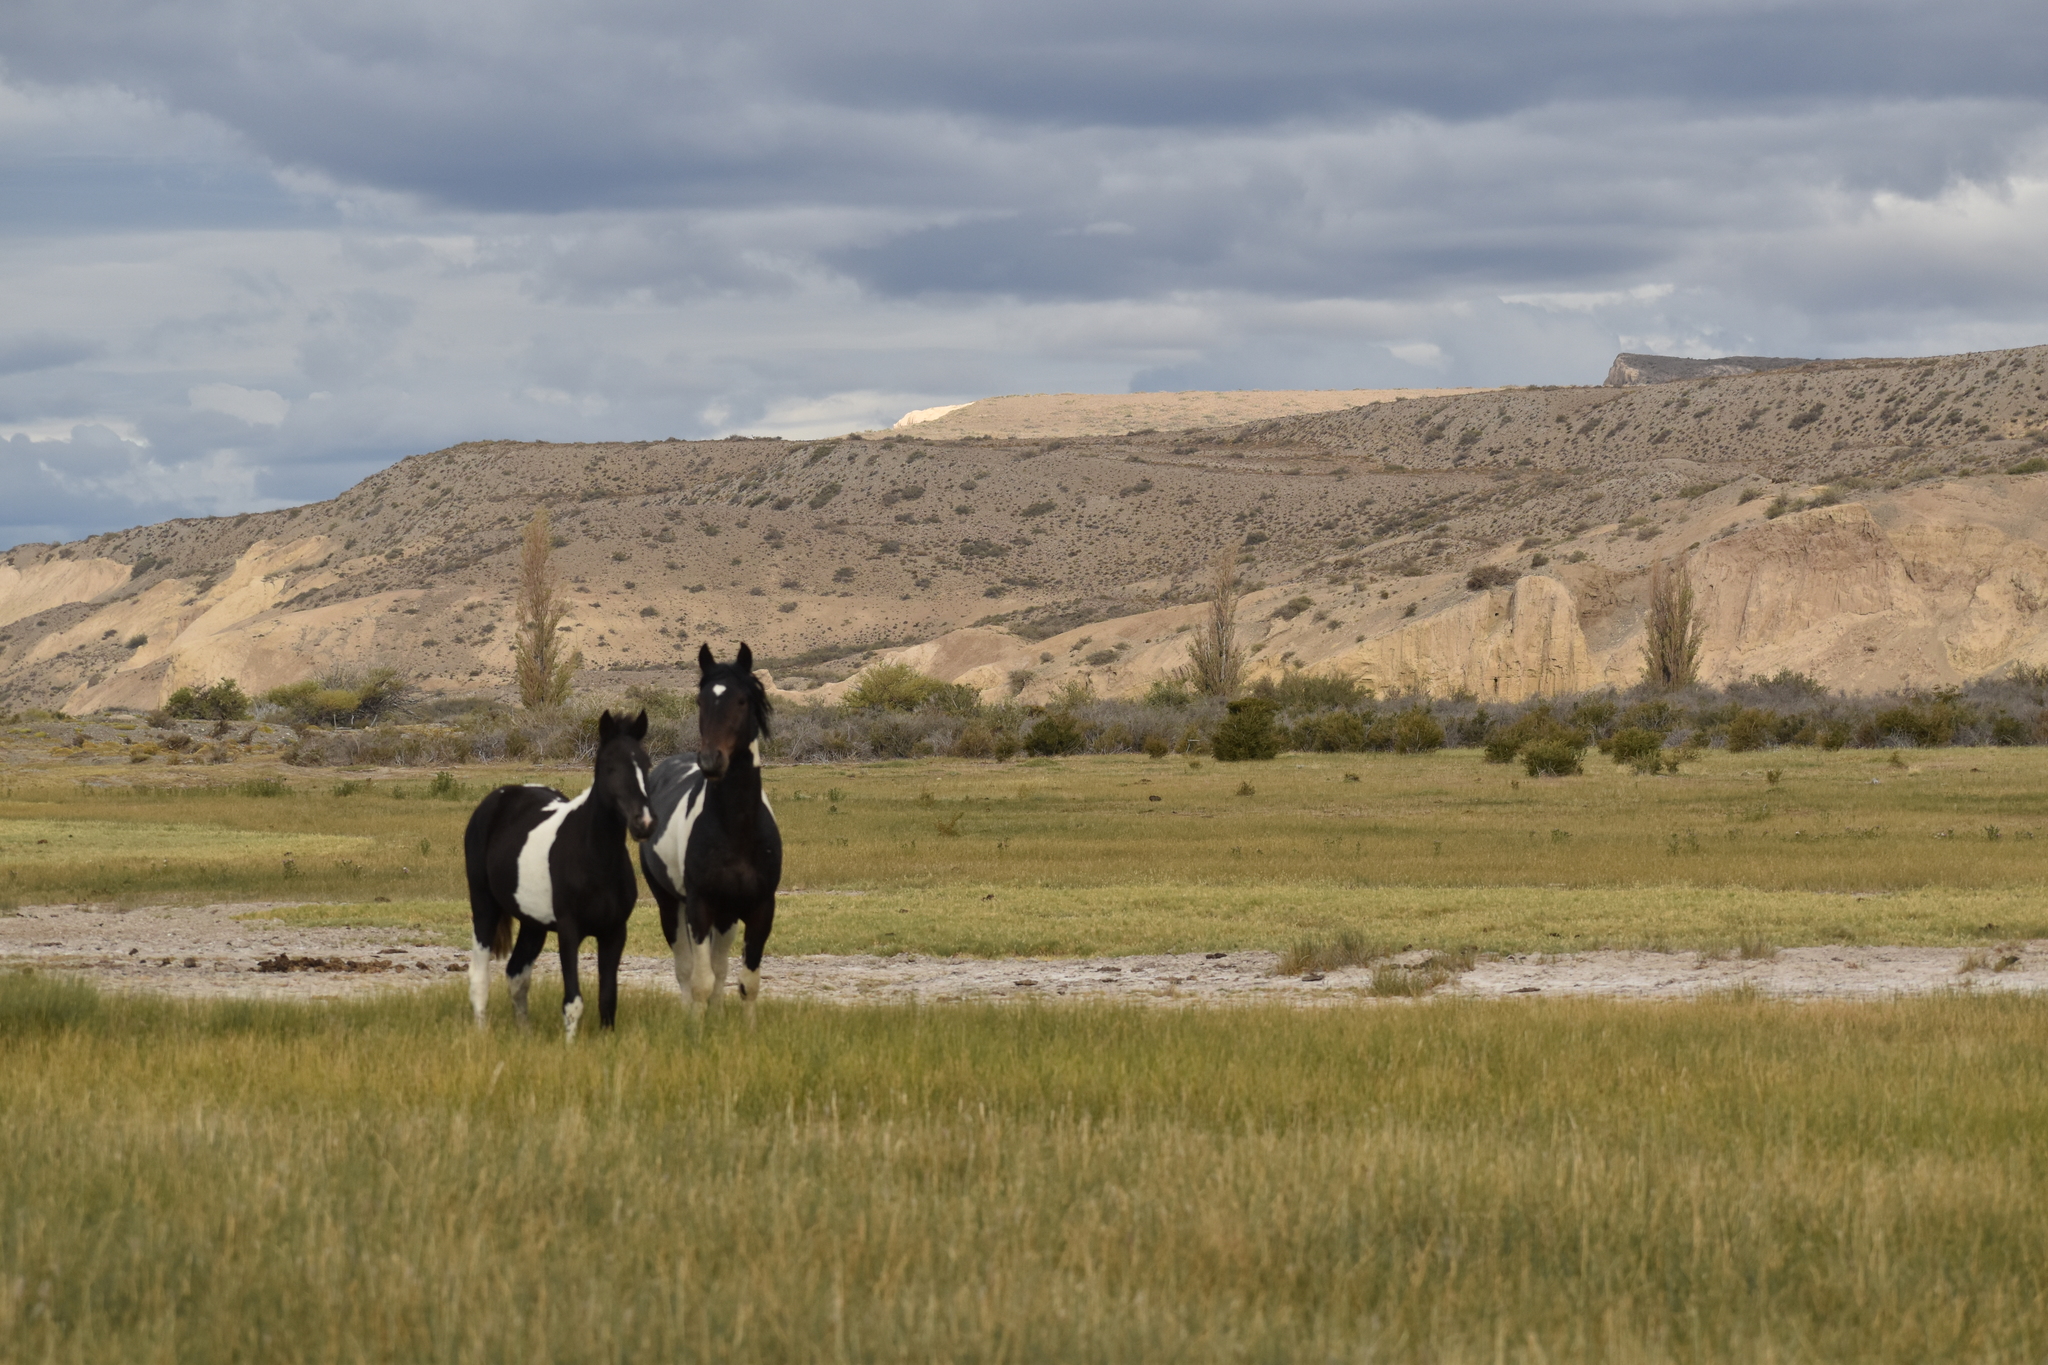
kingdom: Animalia
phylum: Chordata
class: Mammalia
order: Perissodactyla
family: Equidae
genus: Equus
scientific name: Equus caballus
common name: Horse
